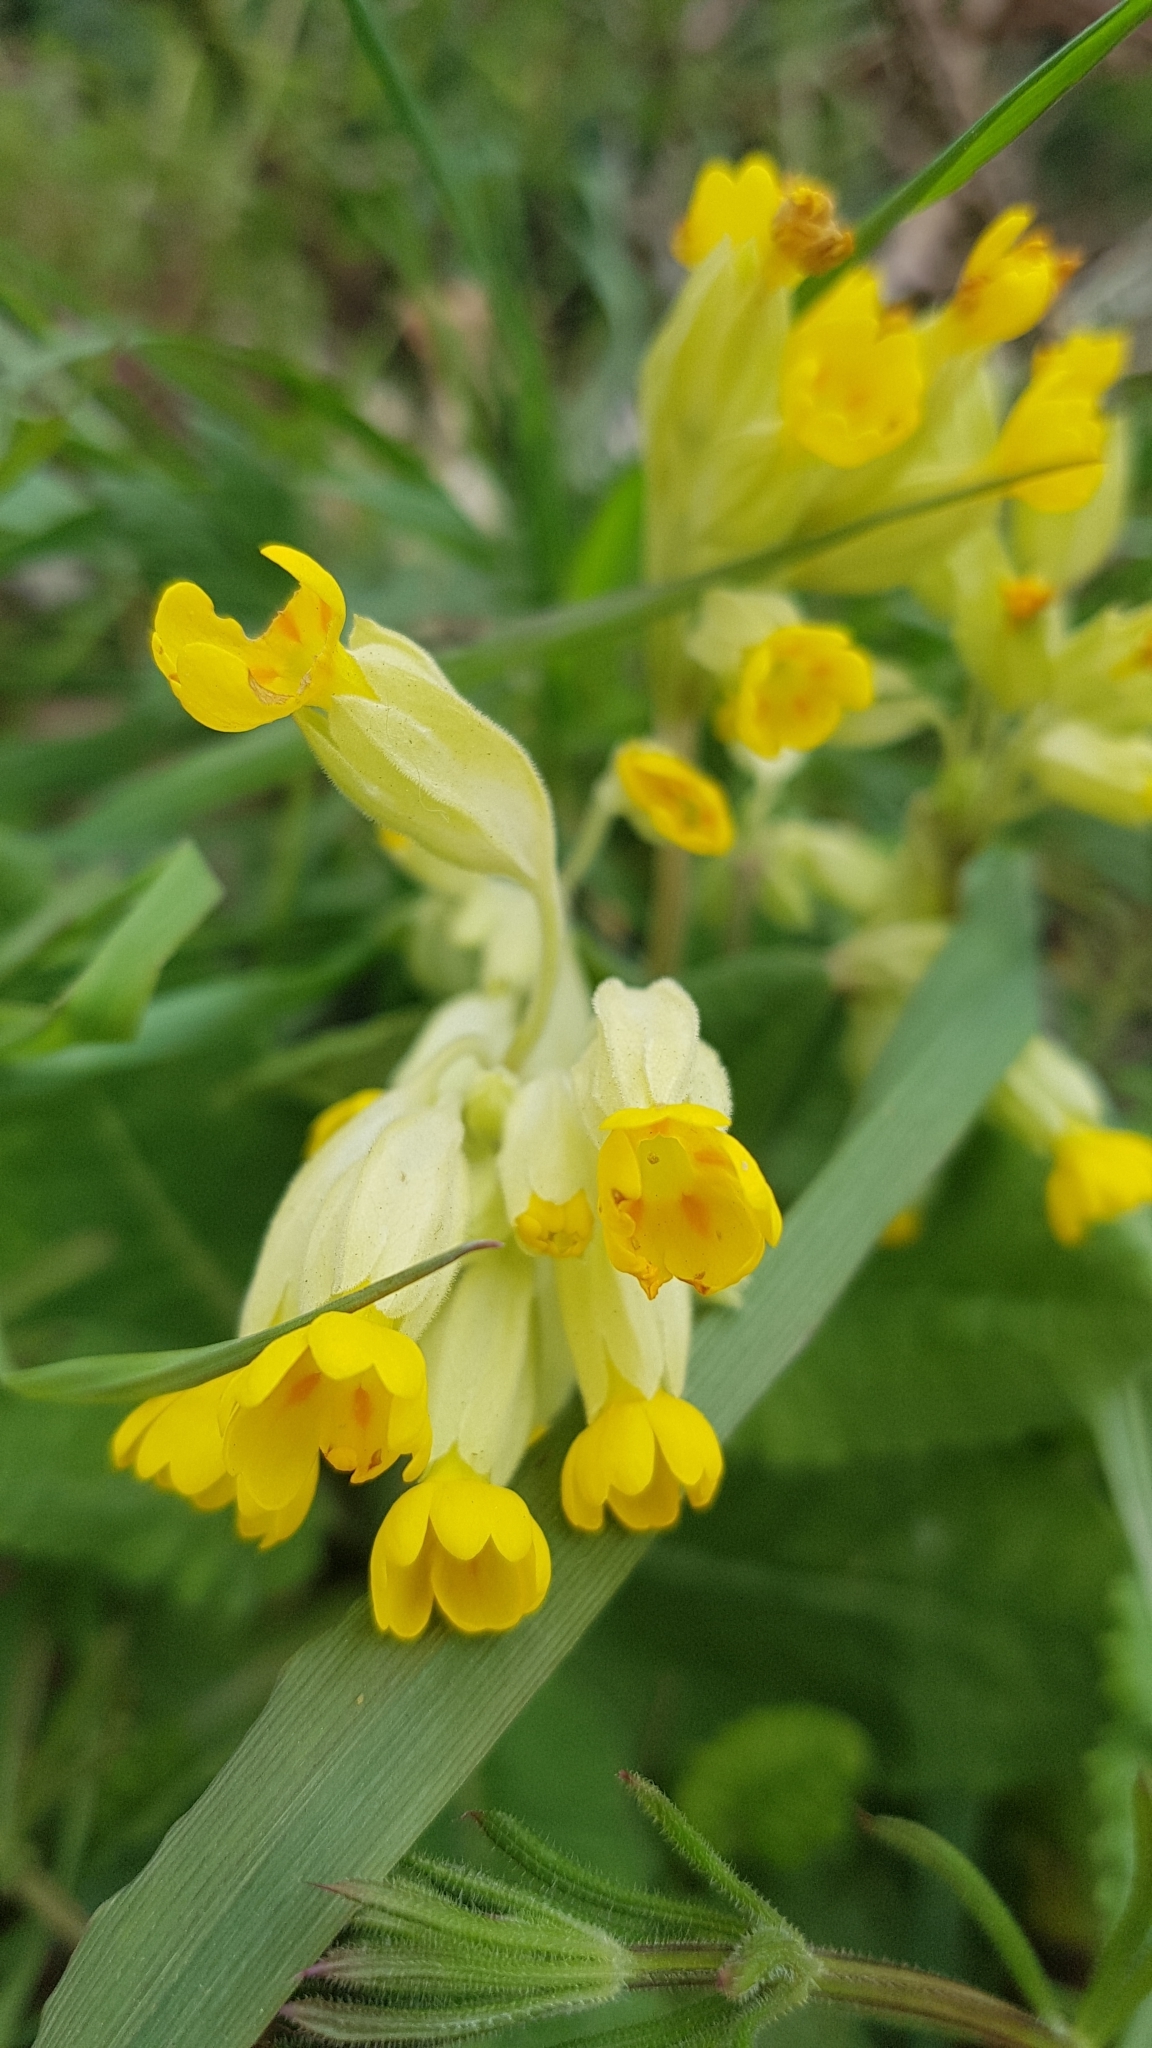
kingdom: Plantae
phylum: Tracheophyta
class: Magnoliopsida
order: Ericales
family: Primulaceae
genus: Primula
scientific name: Primula veris
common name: Cowslip
